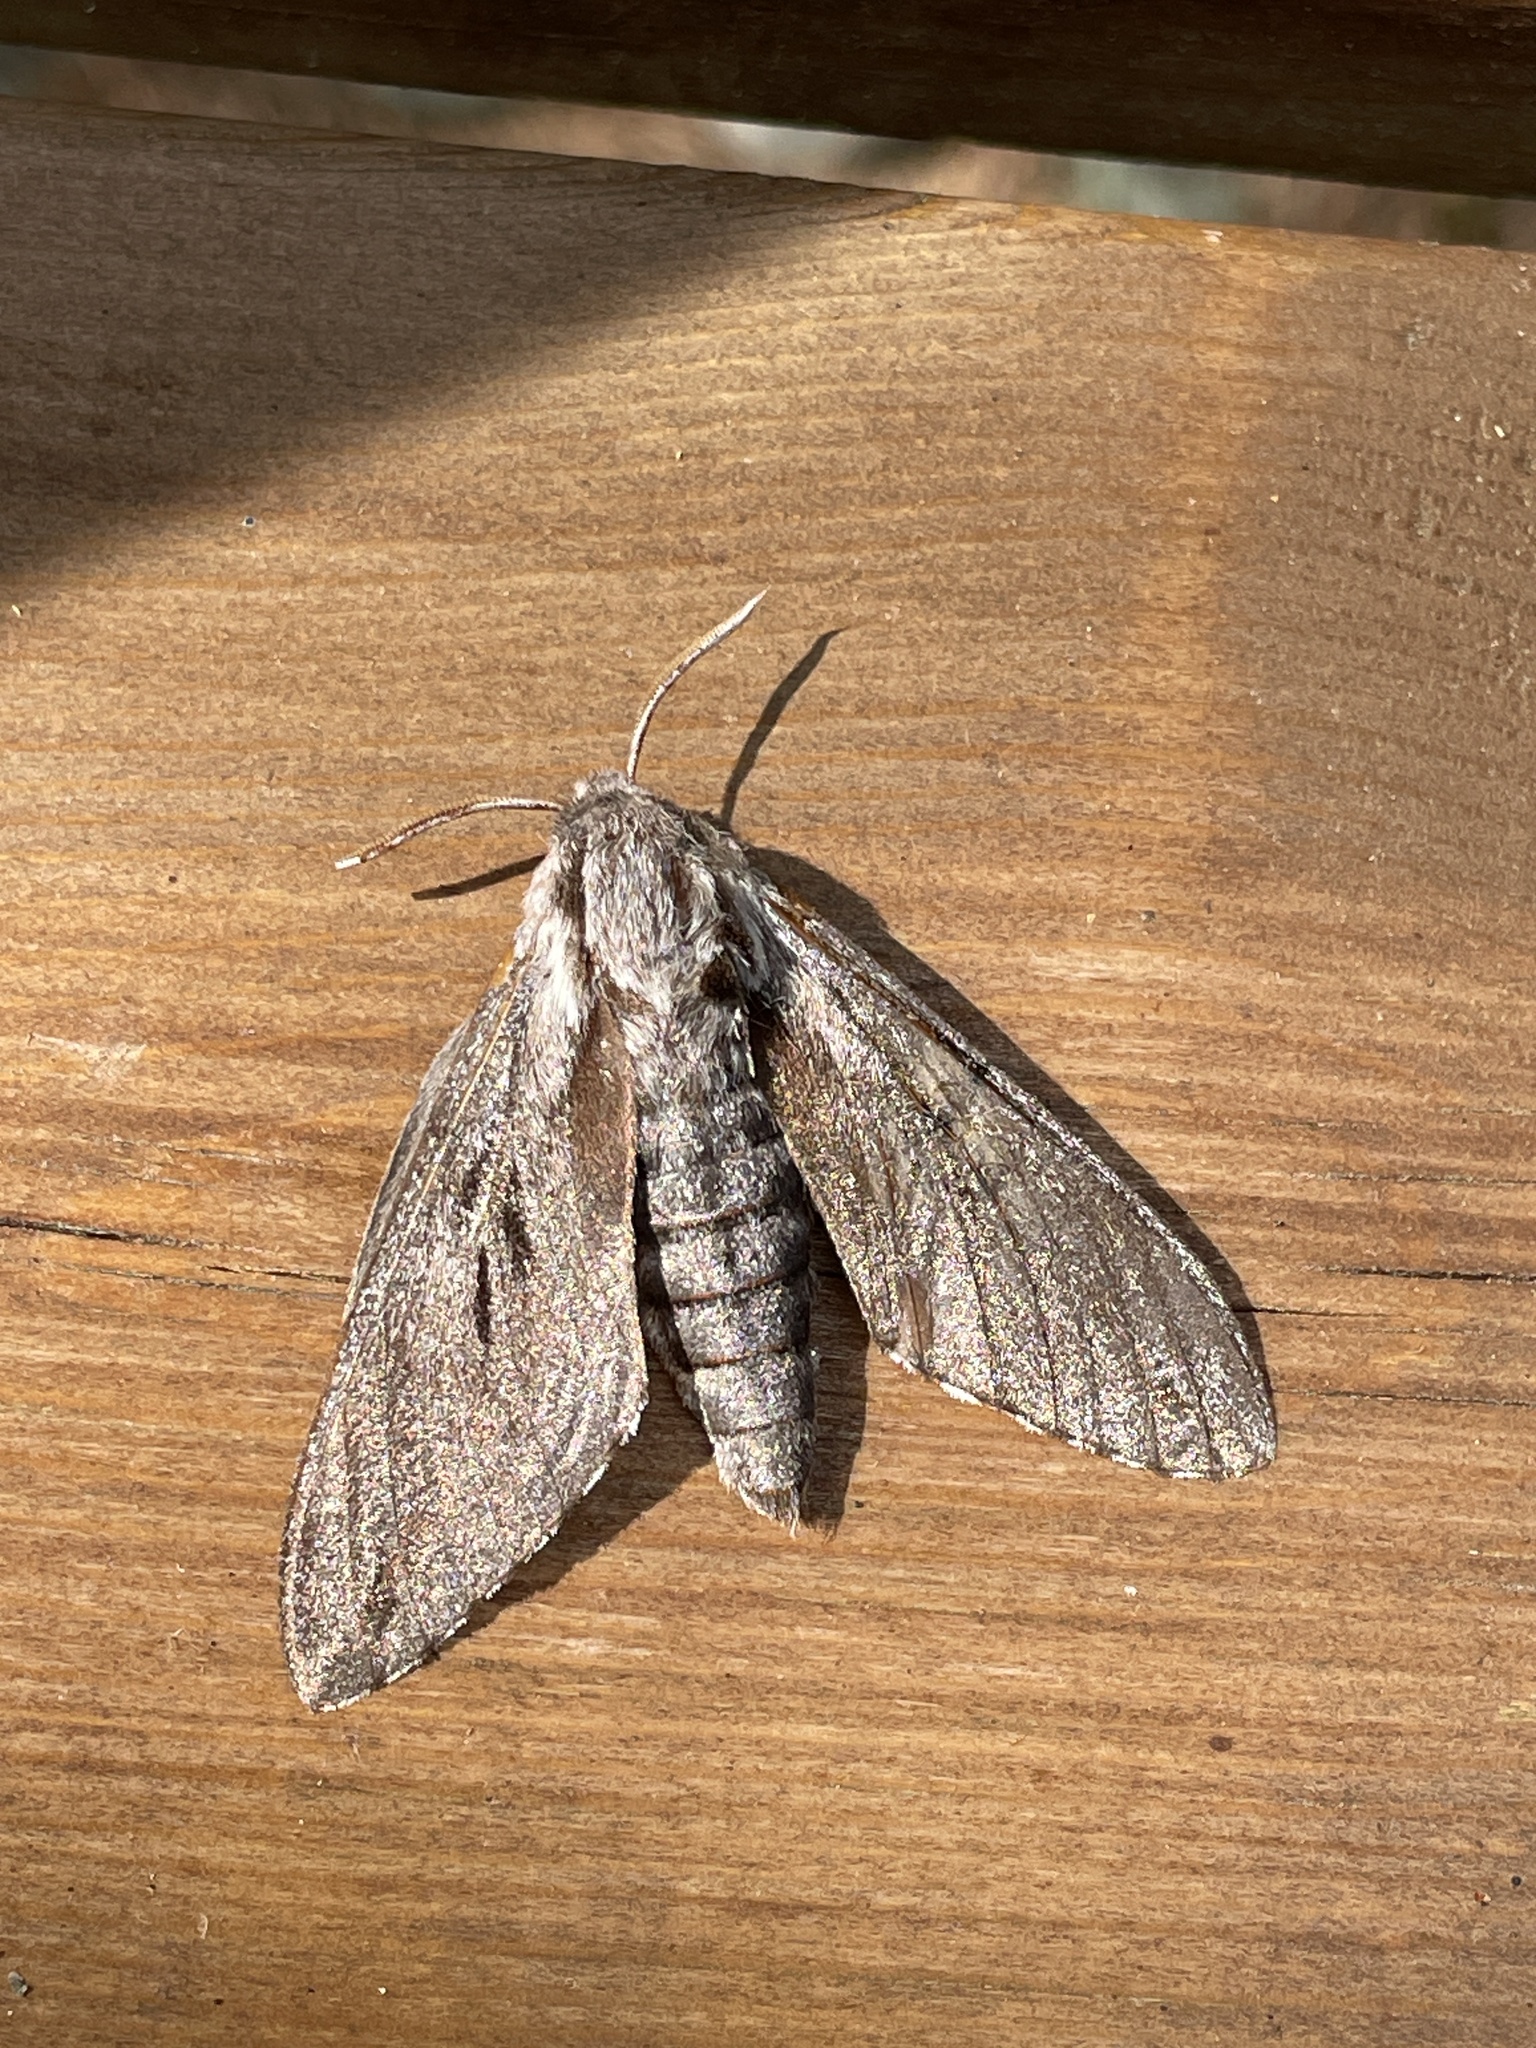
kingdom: Animalia
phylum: Arthropoda
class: Insecta
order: Lepidoptera
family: Sphingidae
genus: Sphinx
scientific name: Sphinx pinastri
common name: Pine hawk-moth
